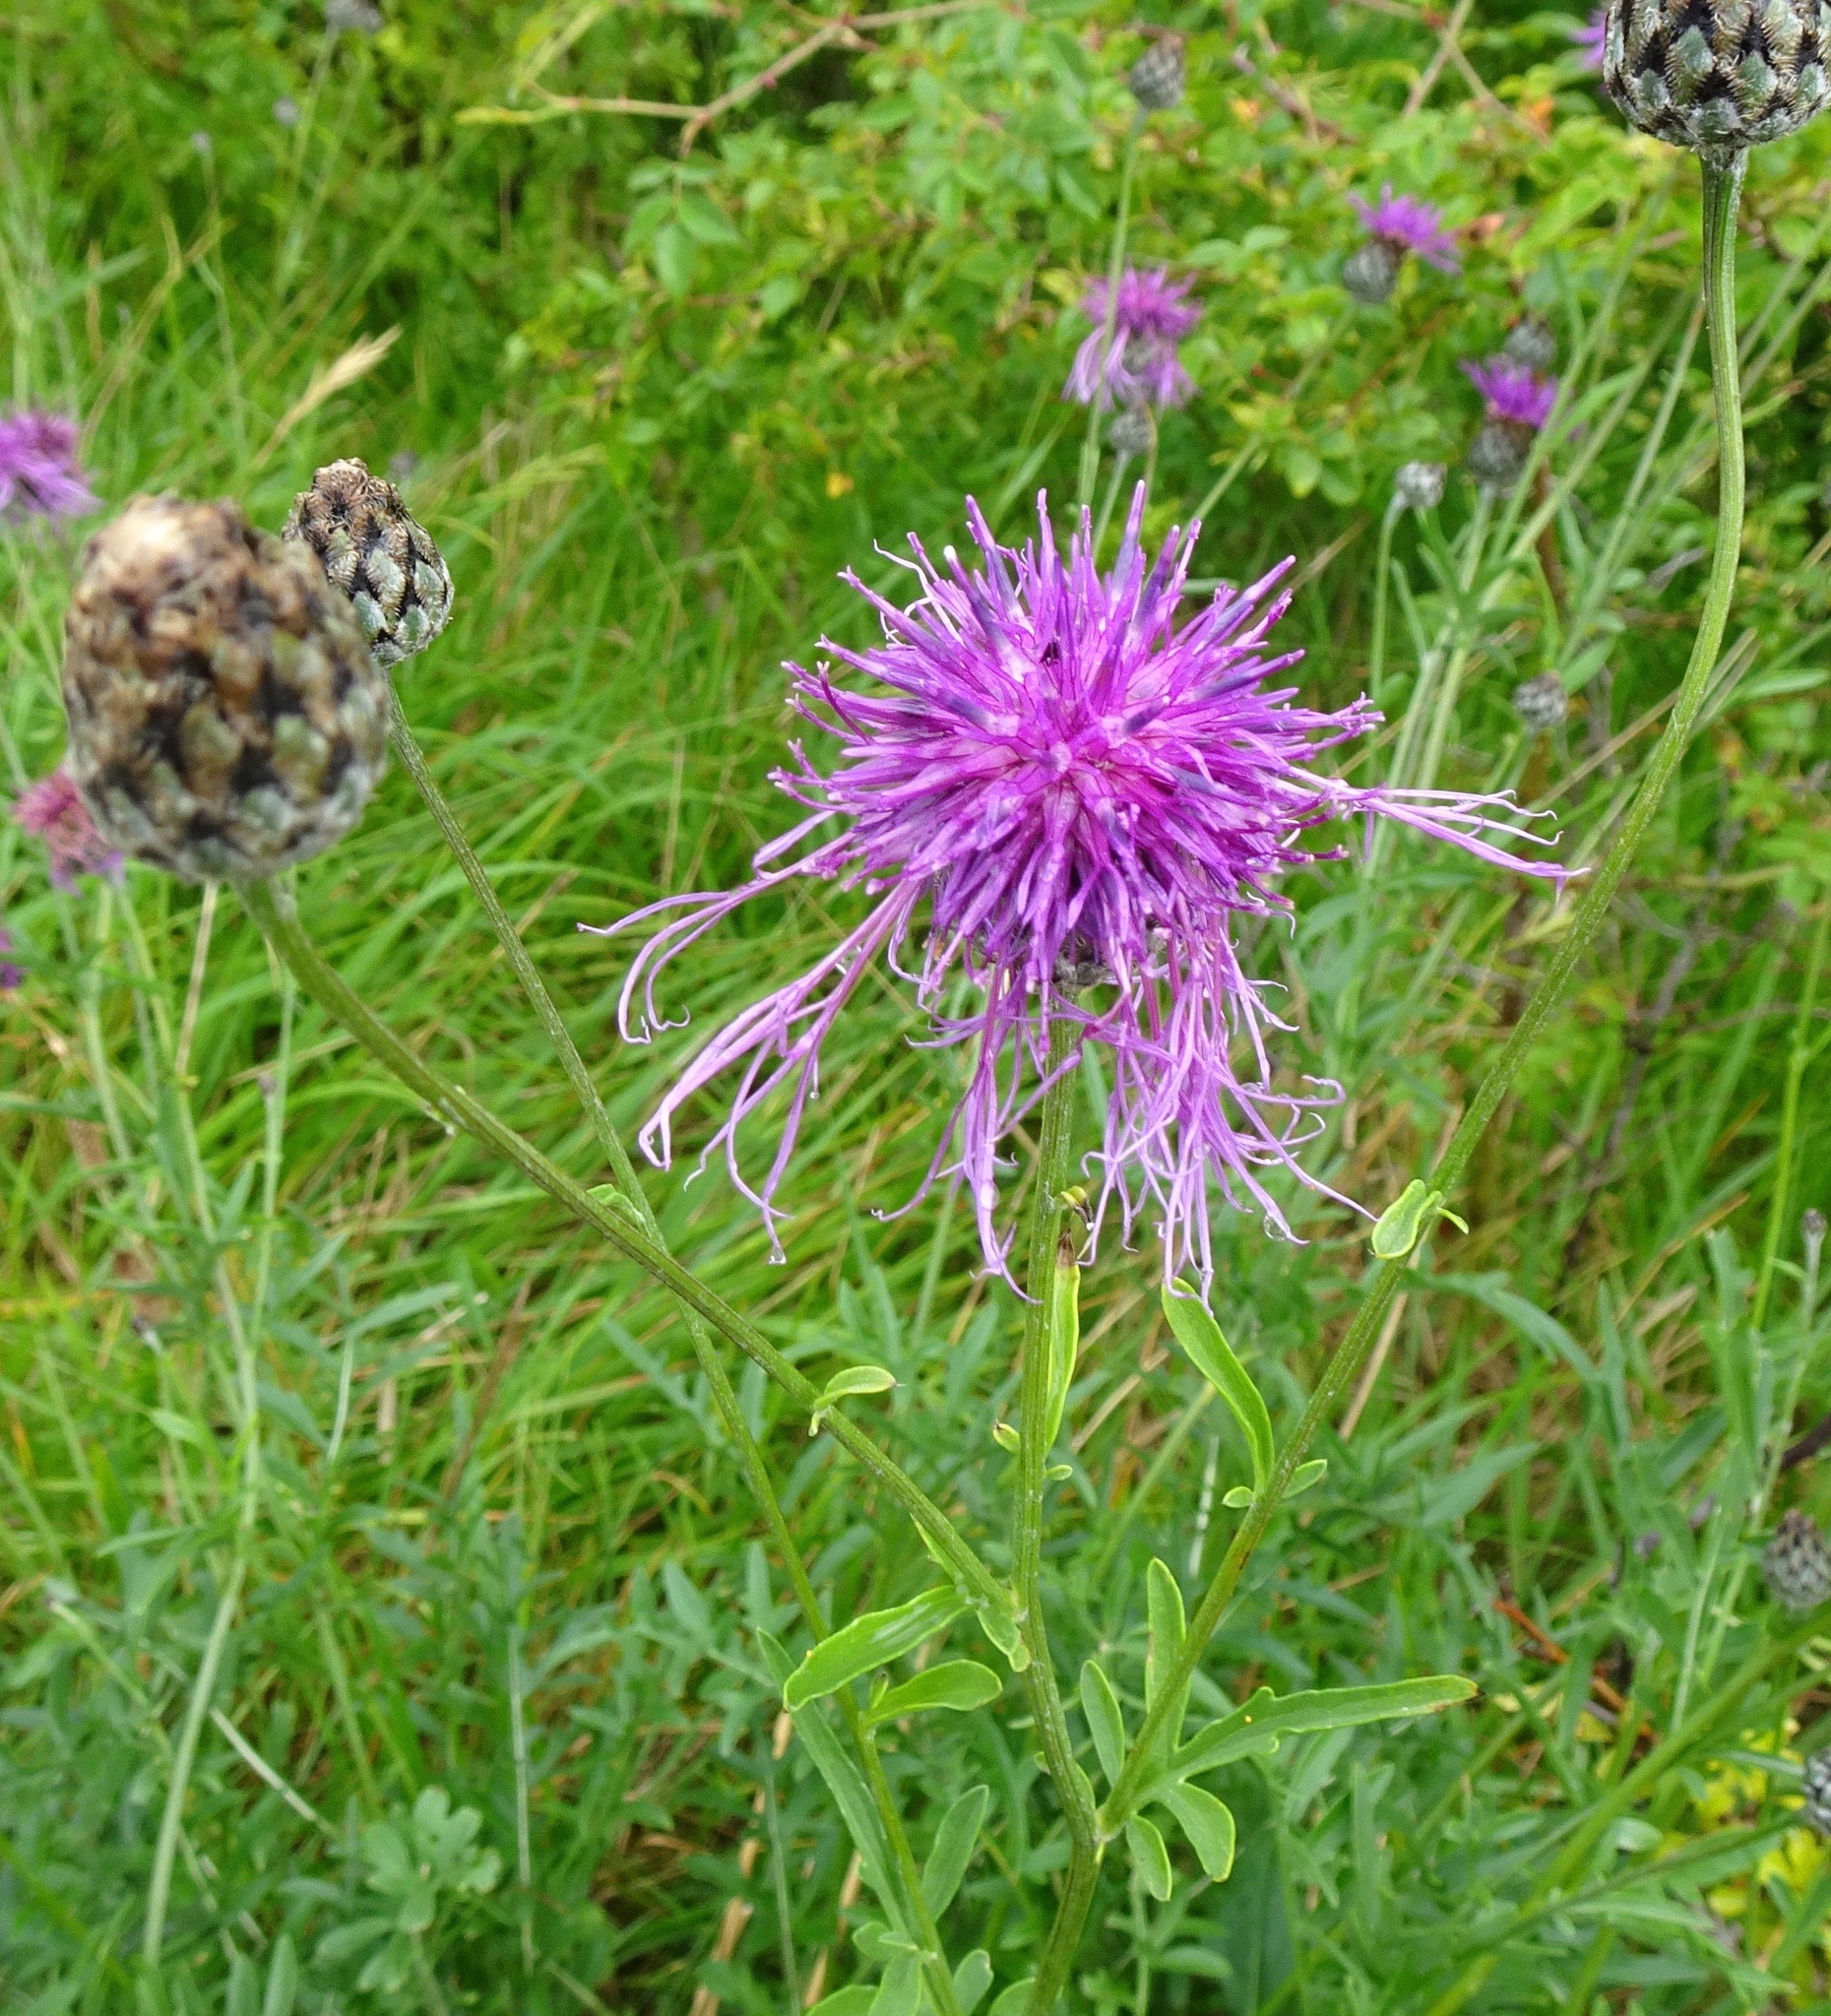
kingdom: Plantae
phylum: Tracheophyta
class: Magnoliopsida
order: Asterales
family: Asteraceae
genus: Centaurea
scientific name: Centaurea scabiosa
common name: Greater knapweed
